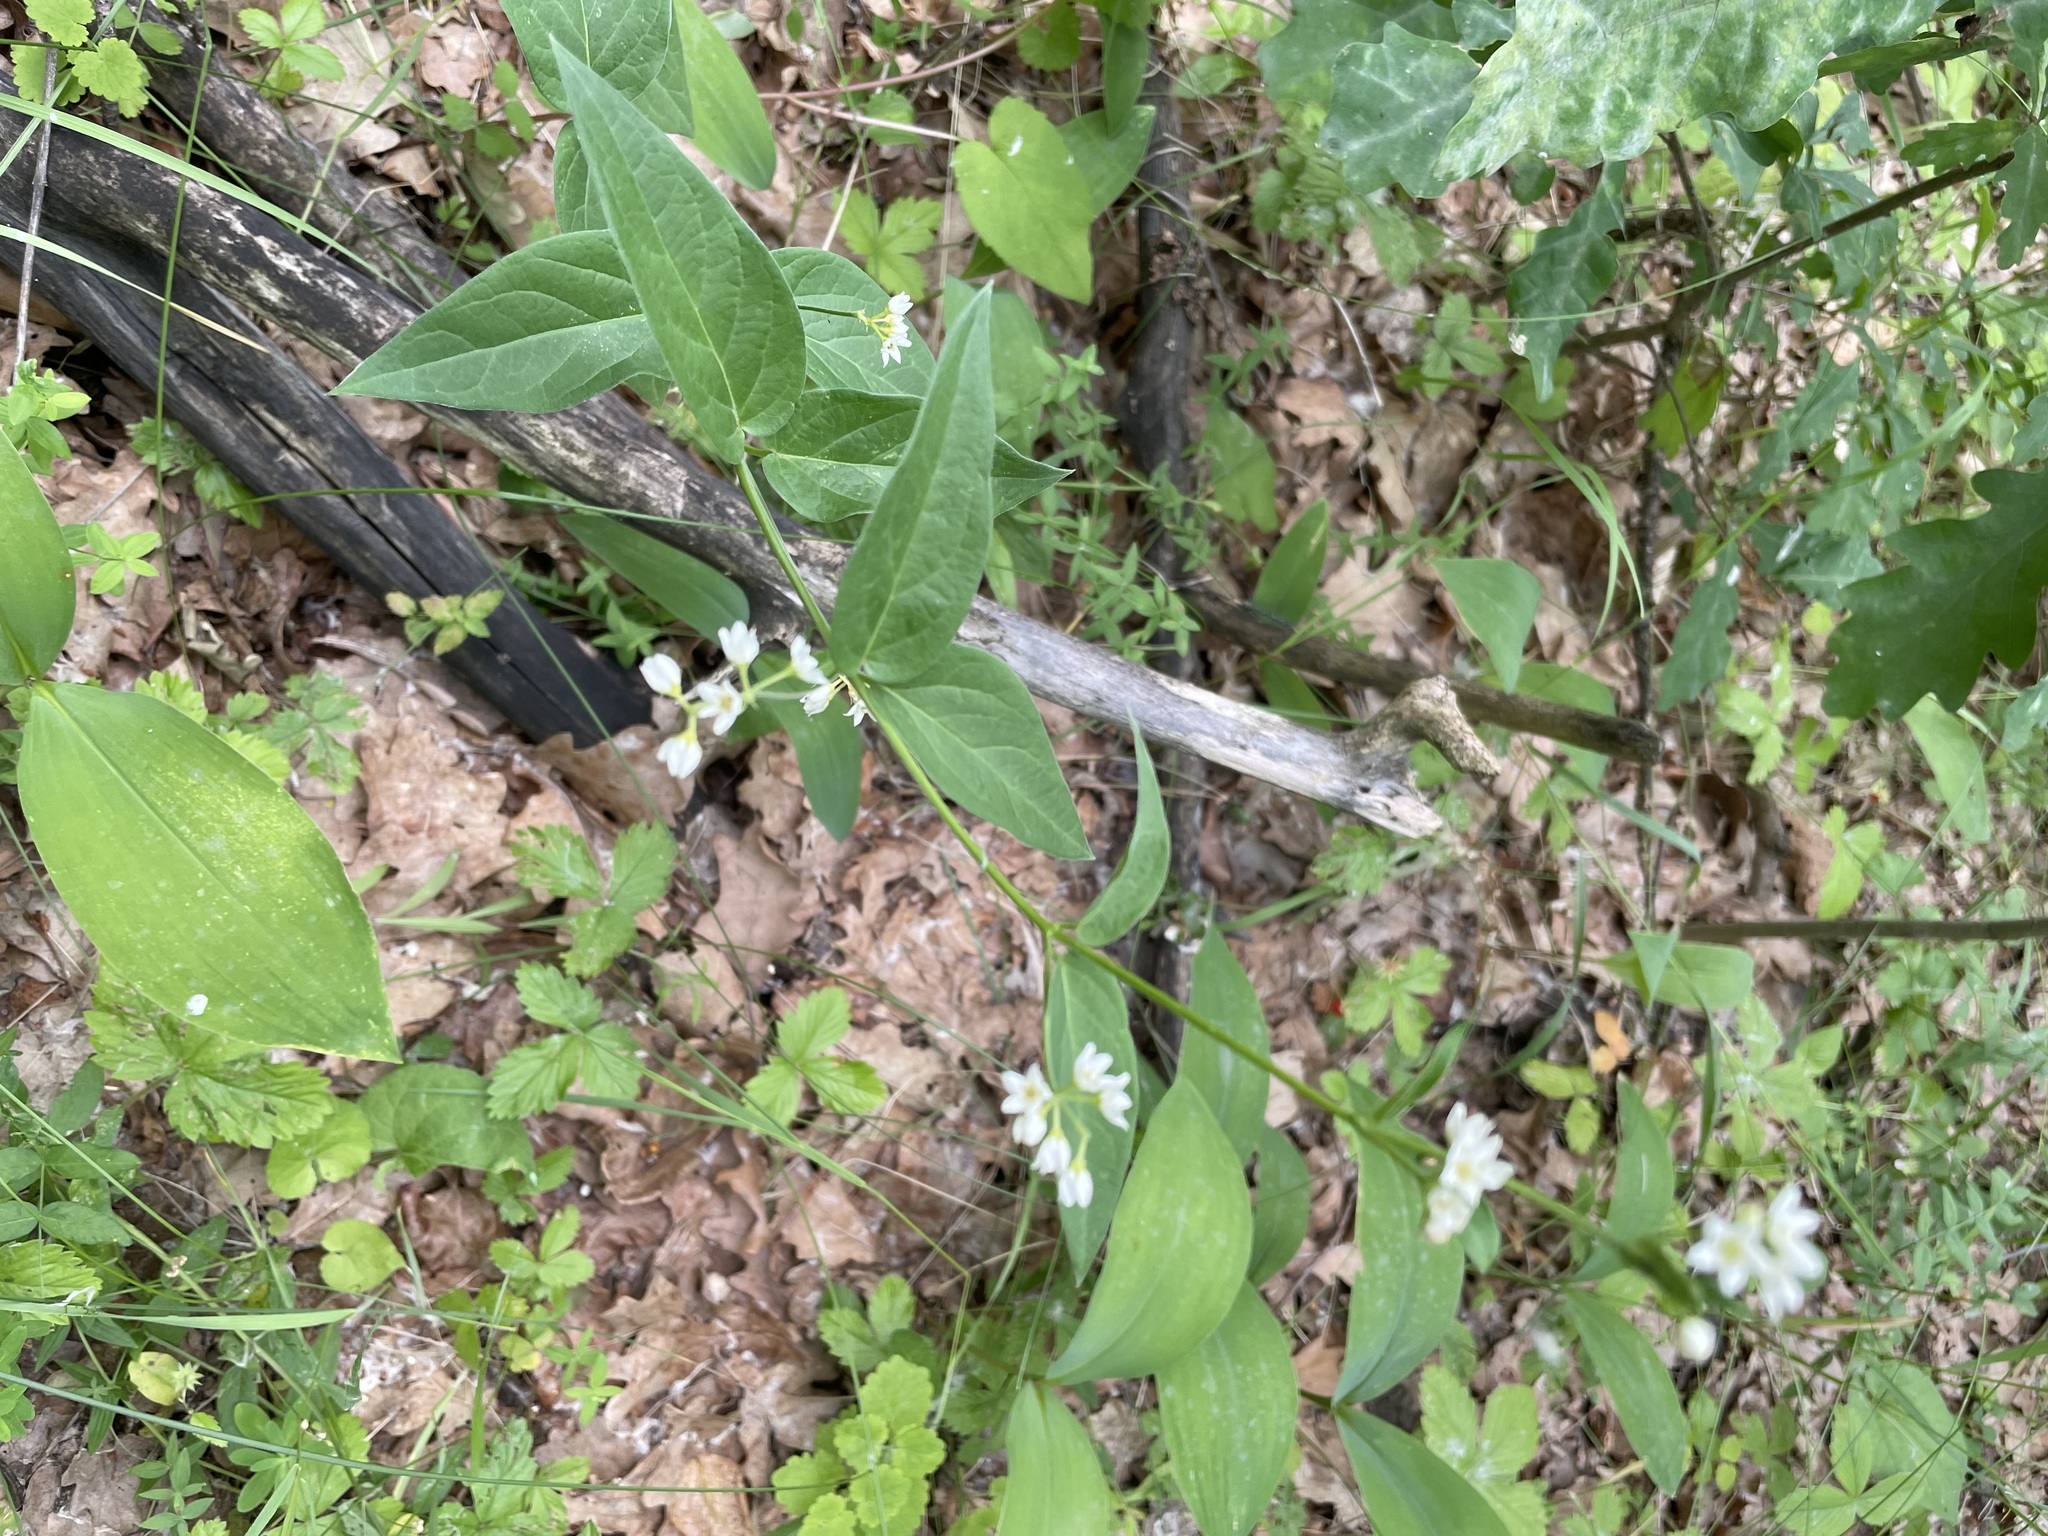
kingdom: Plantae
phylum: Tracheophyta
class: Magnoliopsida
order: Gentianales
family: Apocynaceae
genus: Vincetoxicum
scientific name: Vincetoxicum hirundinaria
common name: White swallowwort
